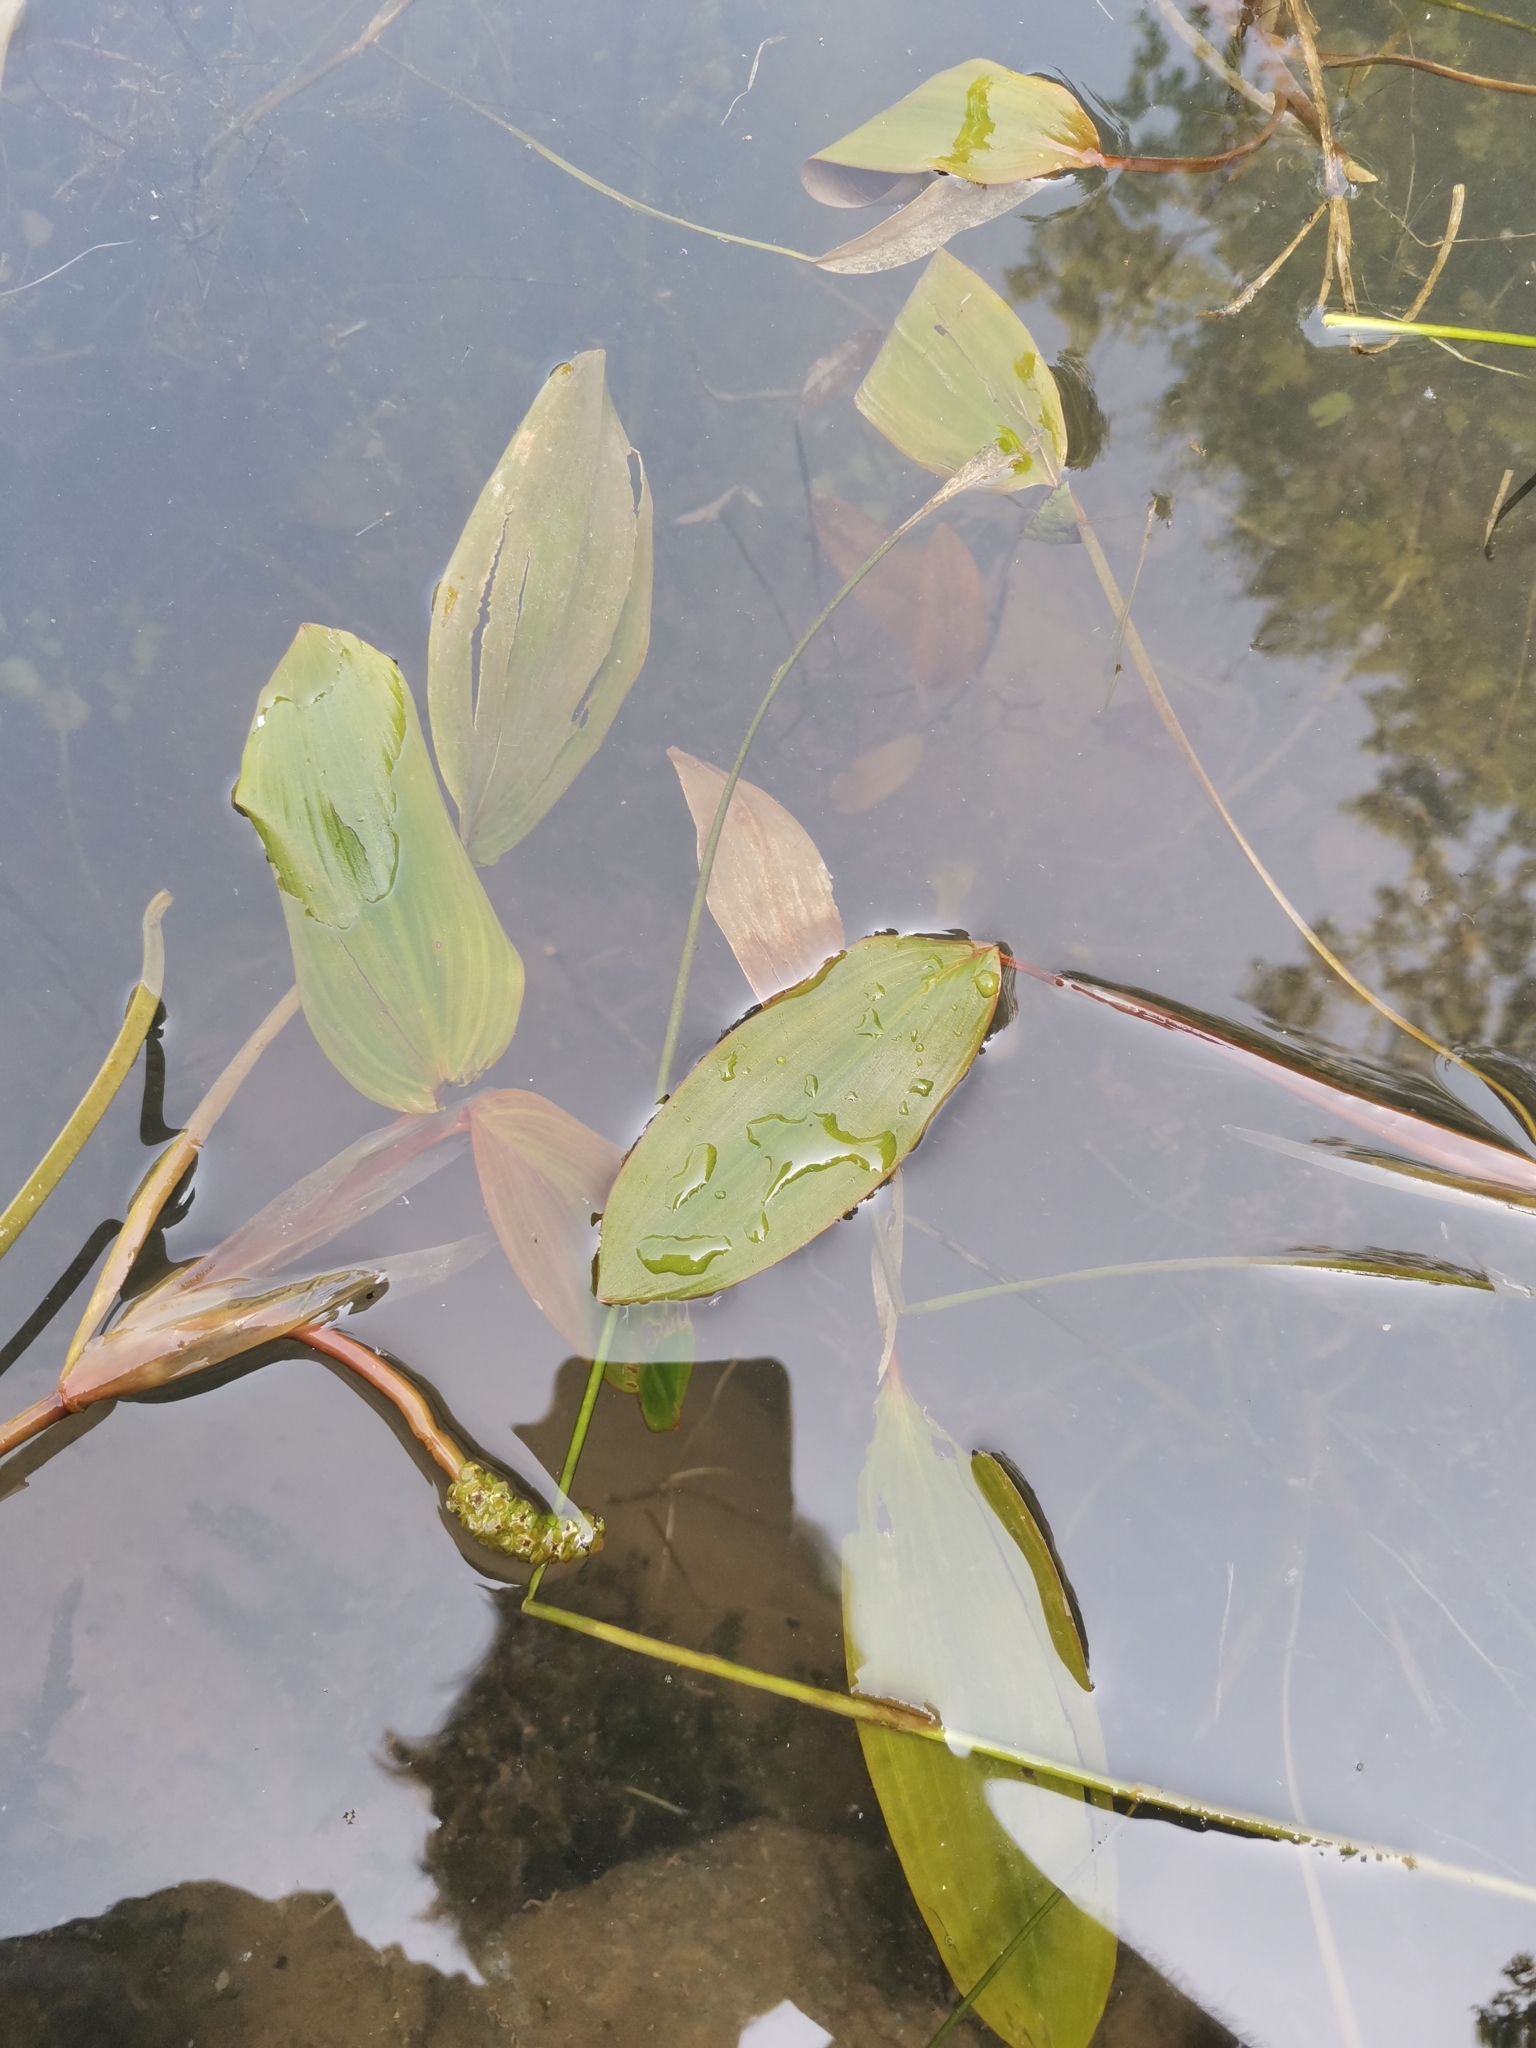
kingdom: Plantae
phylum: Tracheophyta
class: Liliopsida
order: Alismatales
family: Potamogetonaceae
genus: Potamogeton
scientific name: Potamogeton natans
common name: Broad-leaved pondweed
